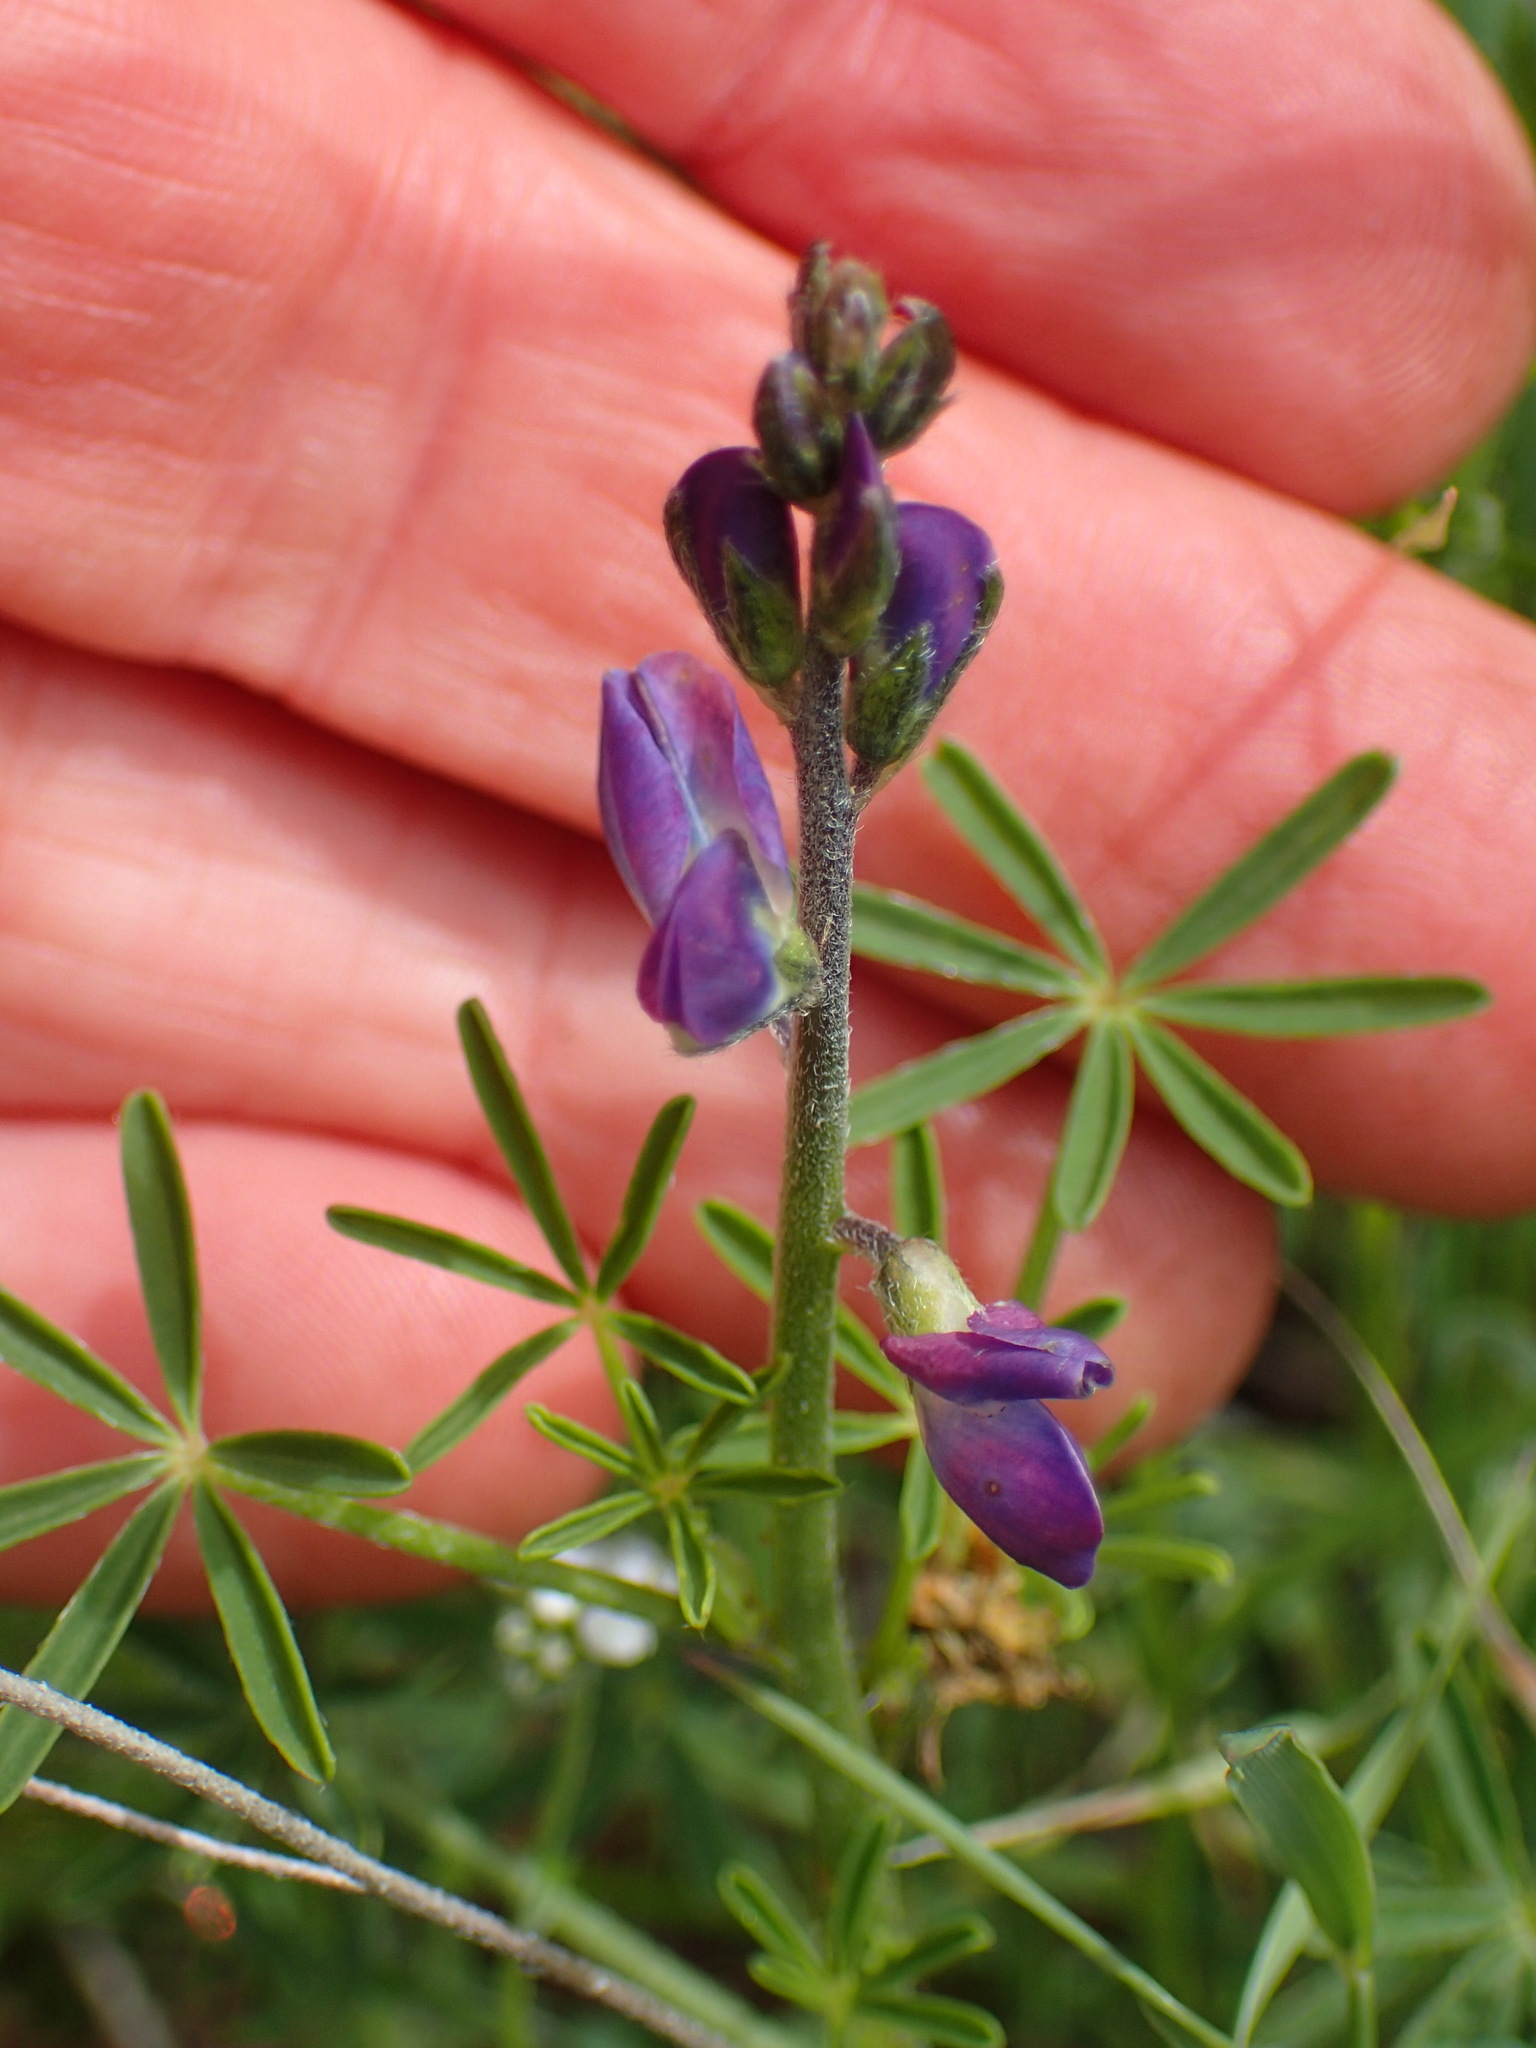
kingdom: Plantae
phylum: Tracheophyta
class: Magnoliopsida
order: Fabales
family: Fabaceae
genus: Lupinus
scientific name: Lupinus truncatus
